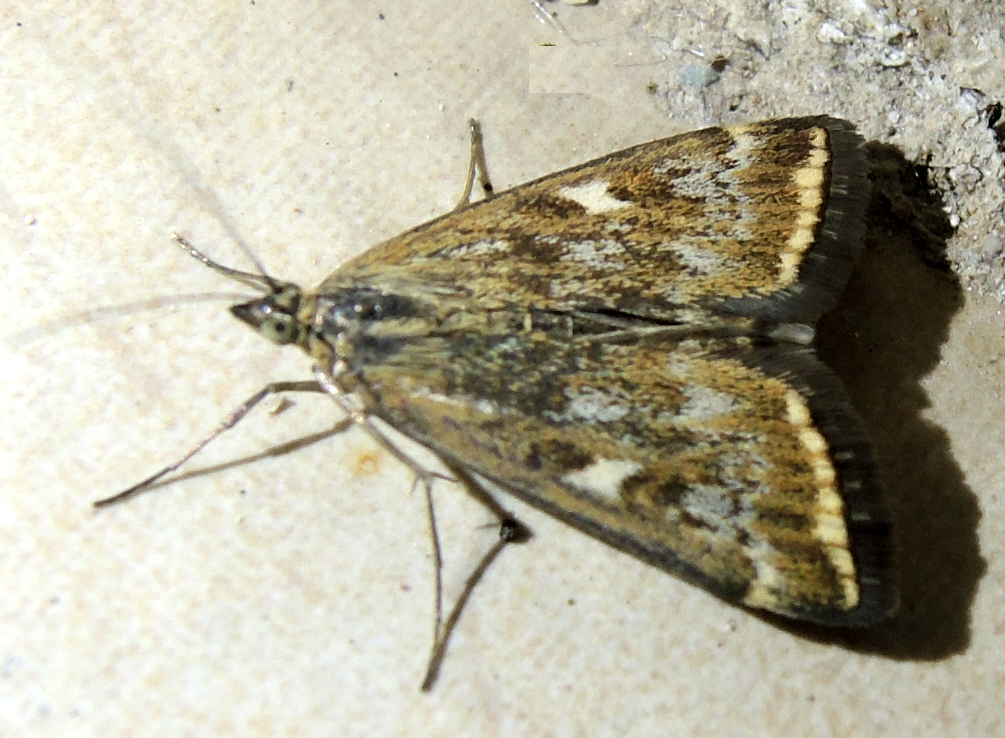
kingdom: Animalia
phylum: Arthropoda
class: Insecta
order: Lepidoptera
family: Crambidae
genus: Loxostege
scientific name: Loxostege sticticalis
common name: Crambid moth
